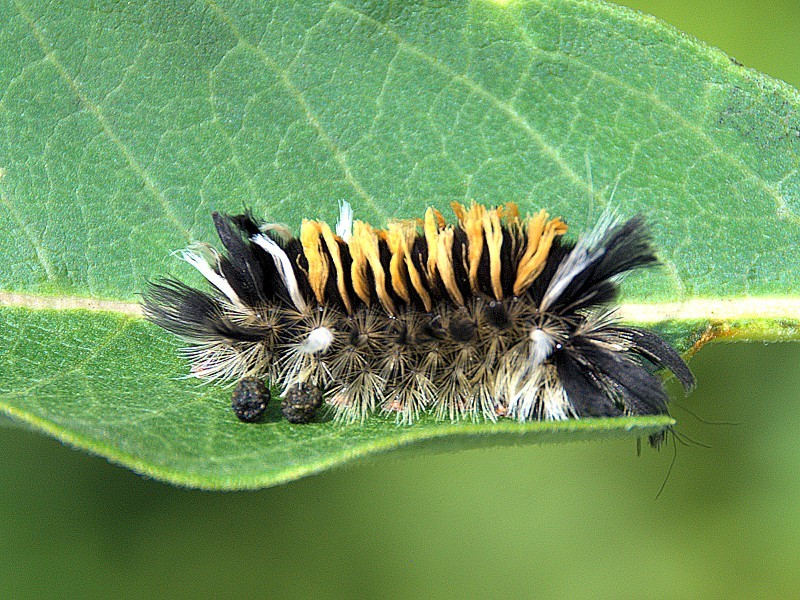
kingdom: Animalia
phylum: Arthropoda
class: Insecta
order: Lepidoptera
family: Erebidae
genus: Euchaetes
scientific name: Euchaetes egle
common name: Milkweed tussock moth
